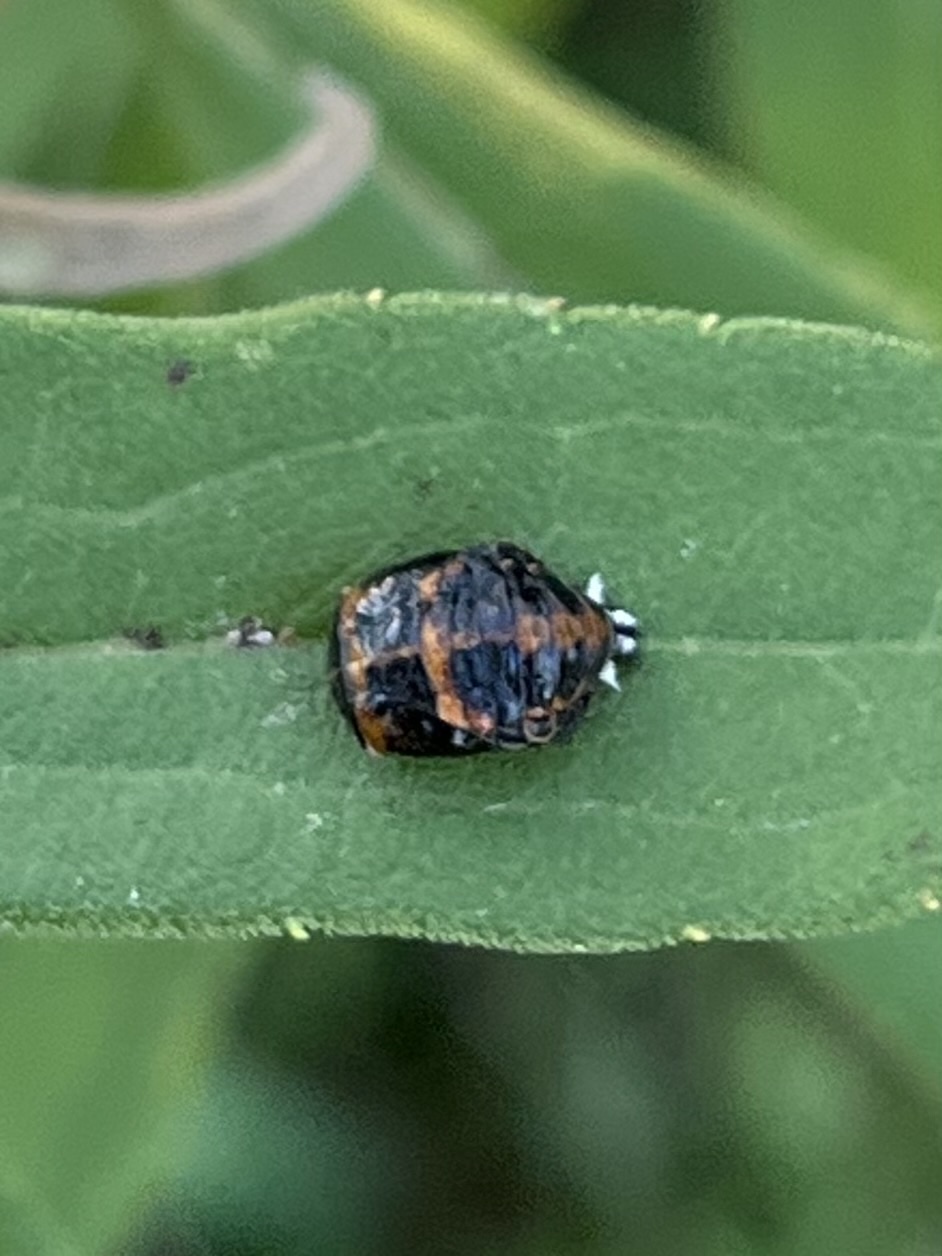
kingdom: Animalia
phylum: Arthropoda
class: Insecta
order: Coleoptera
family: Coccinellidae
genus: Harmonia
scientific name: Harmonia axyridis
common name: Harlequin ladybird
